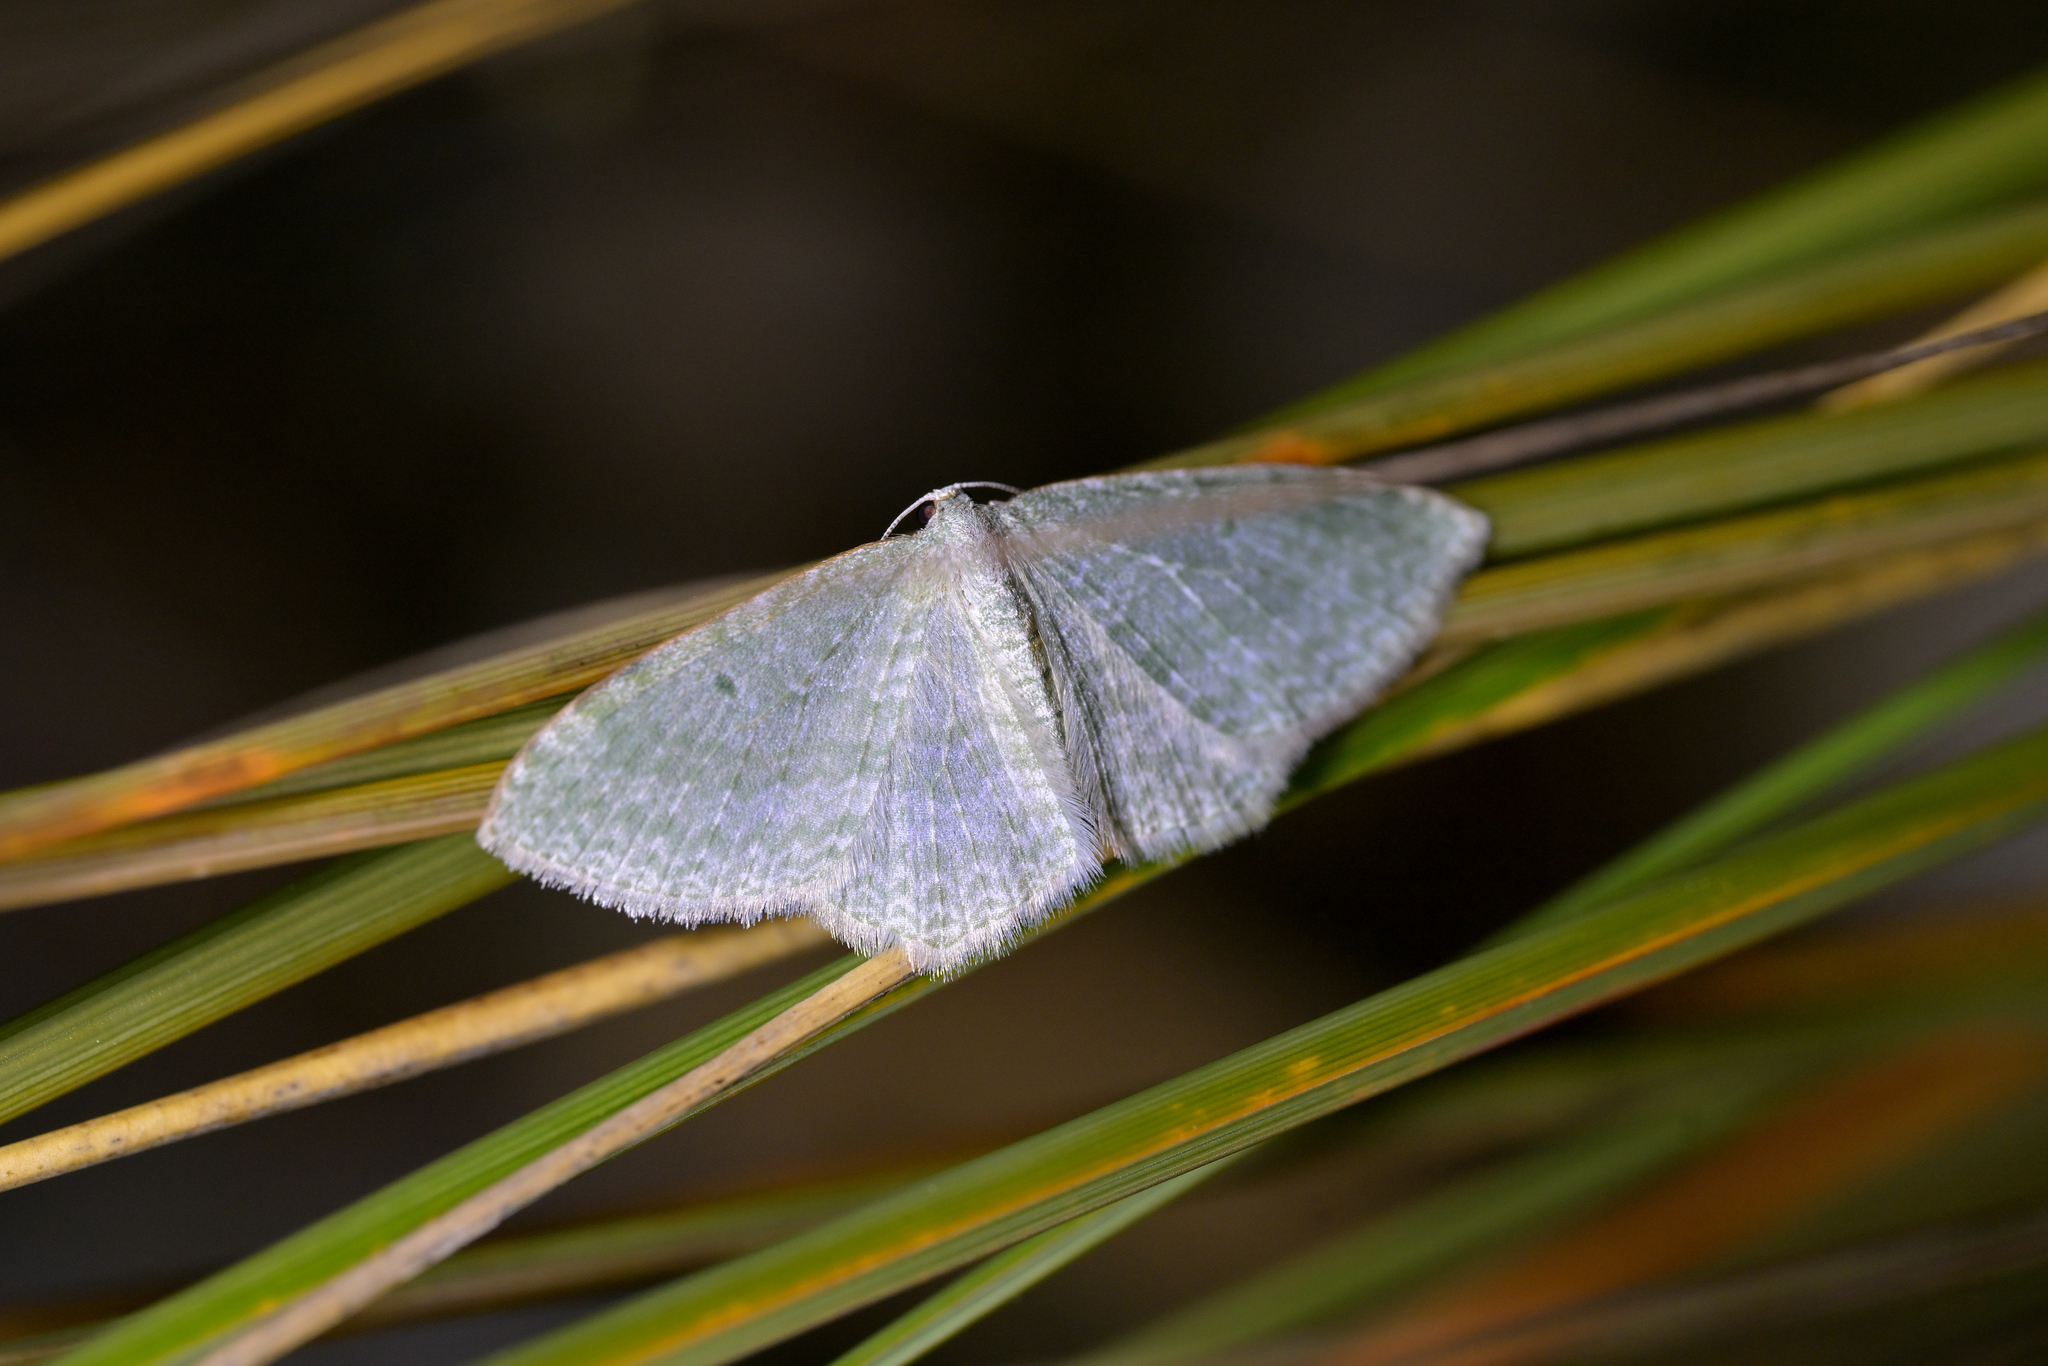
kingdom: Animalia
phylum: Arthropoda
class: Insecta
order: Lepidoptera
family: Geometridae
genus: Poecilasthena
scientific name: Poecilasthena pulchraria
